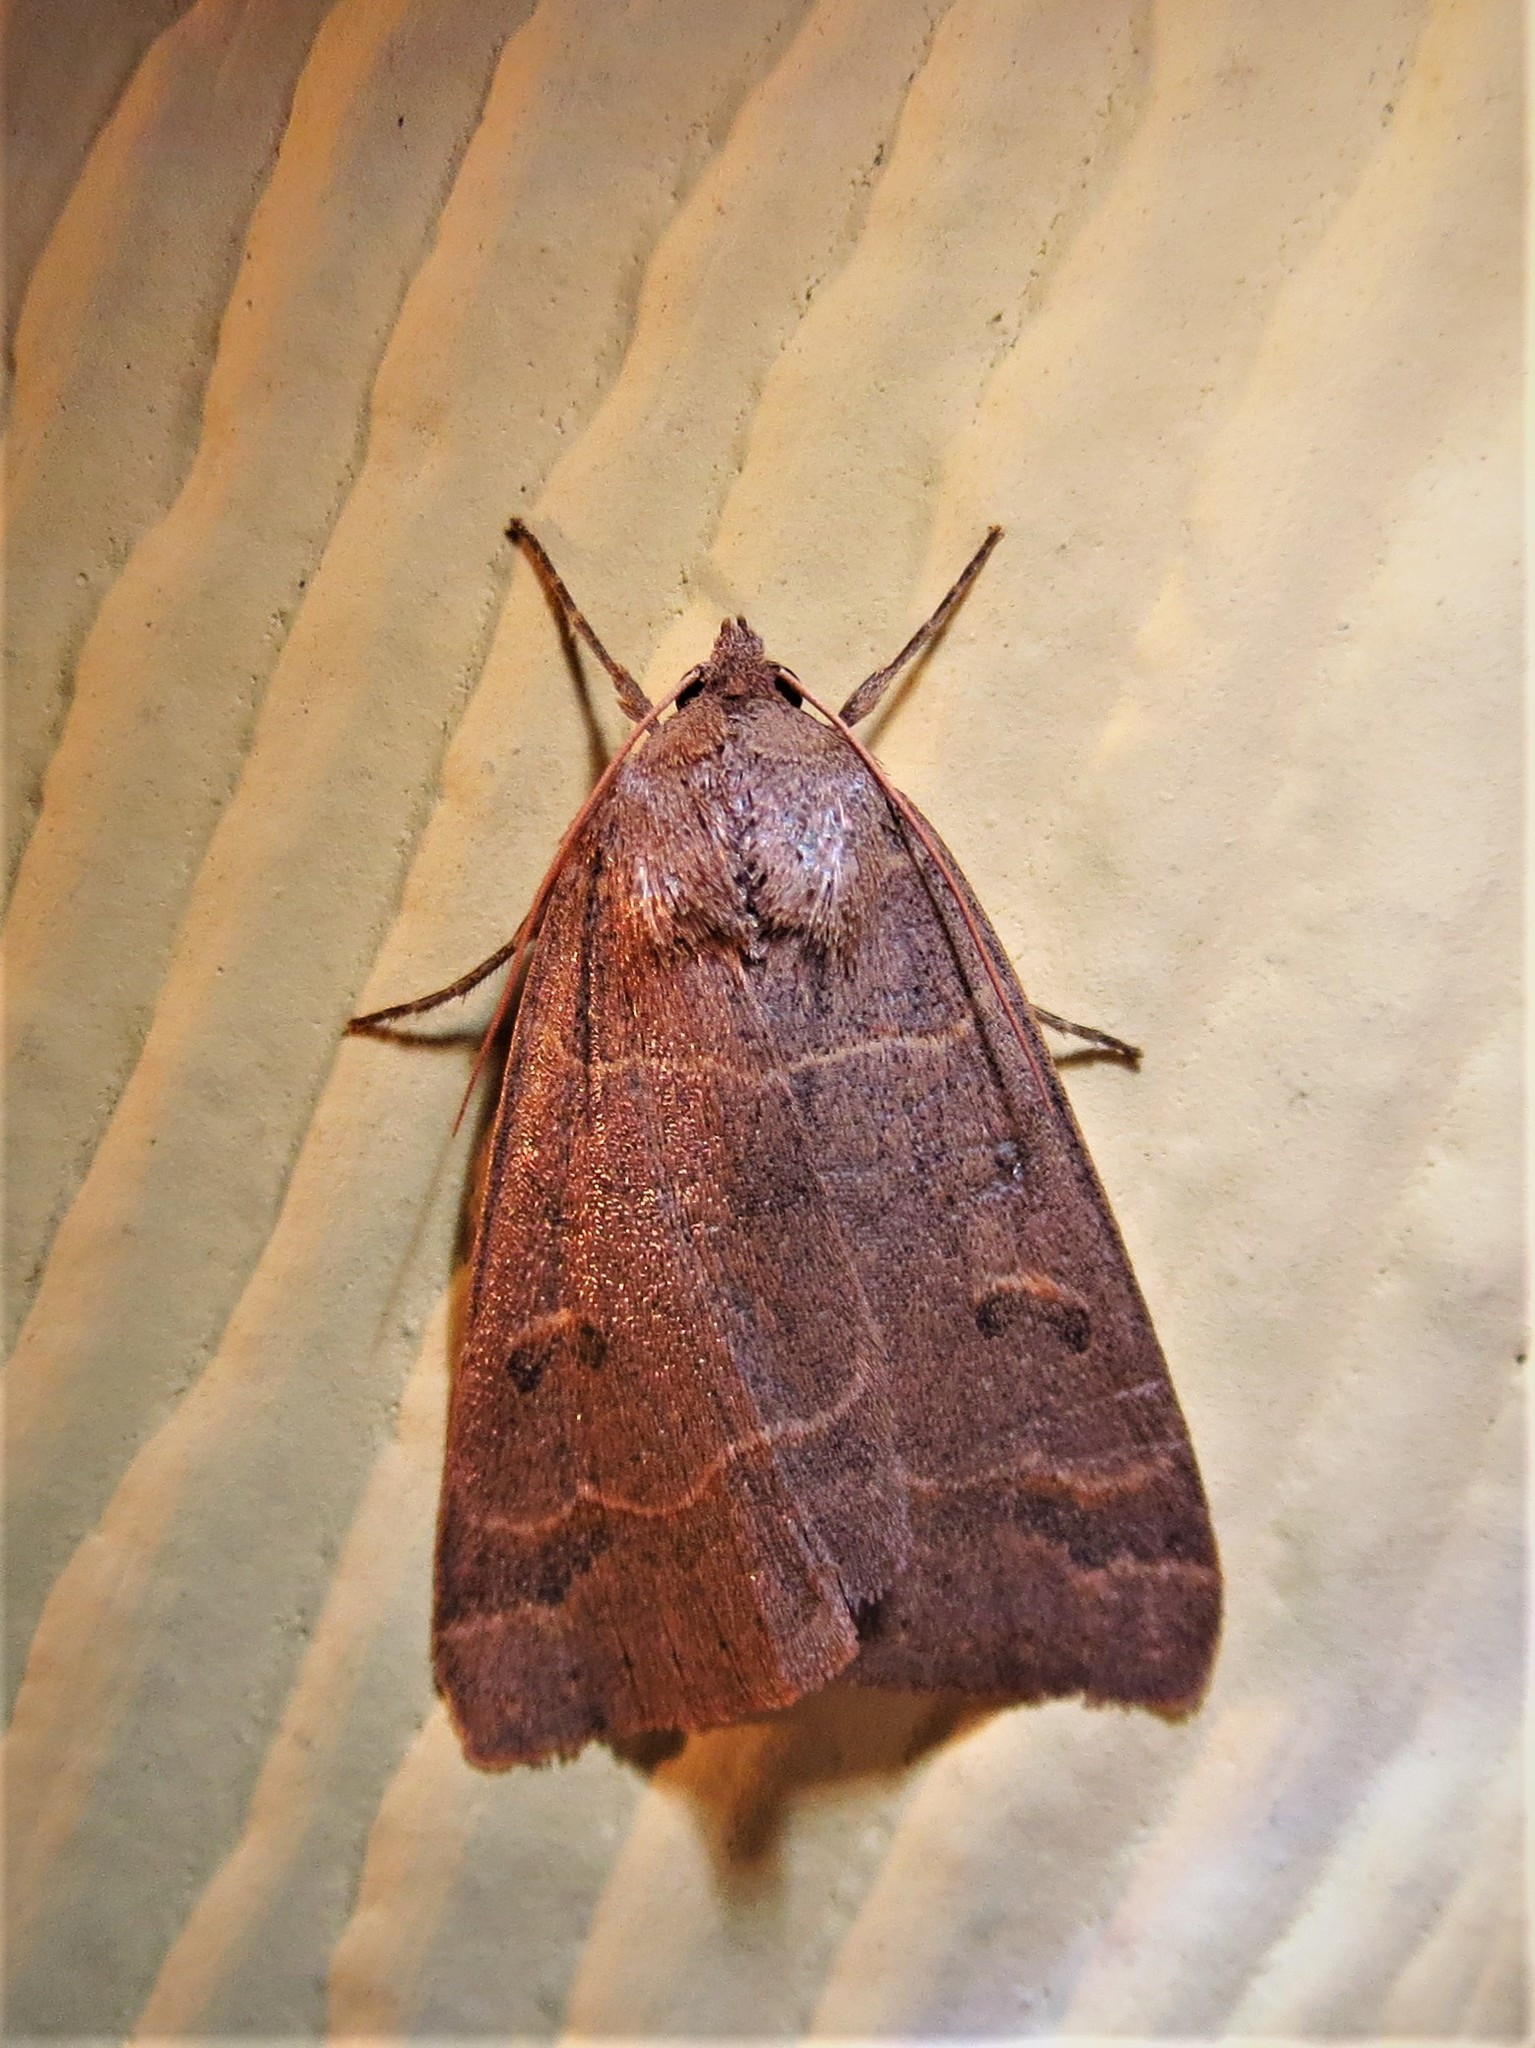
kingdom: Animalia
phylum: Arthropoda
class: Insecta
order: Lepidoptera
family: Erebidae
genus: Phoberia
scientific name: Phoberia atomaris
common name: Common oak moth
